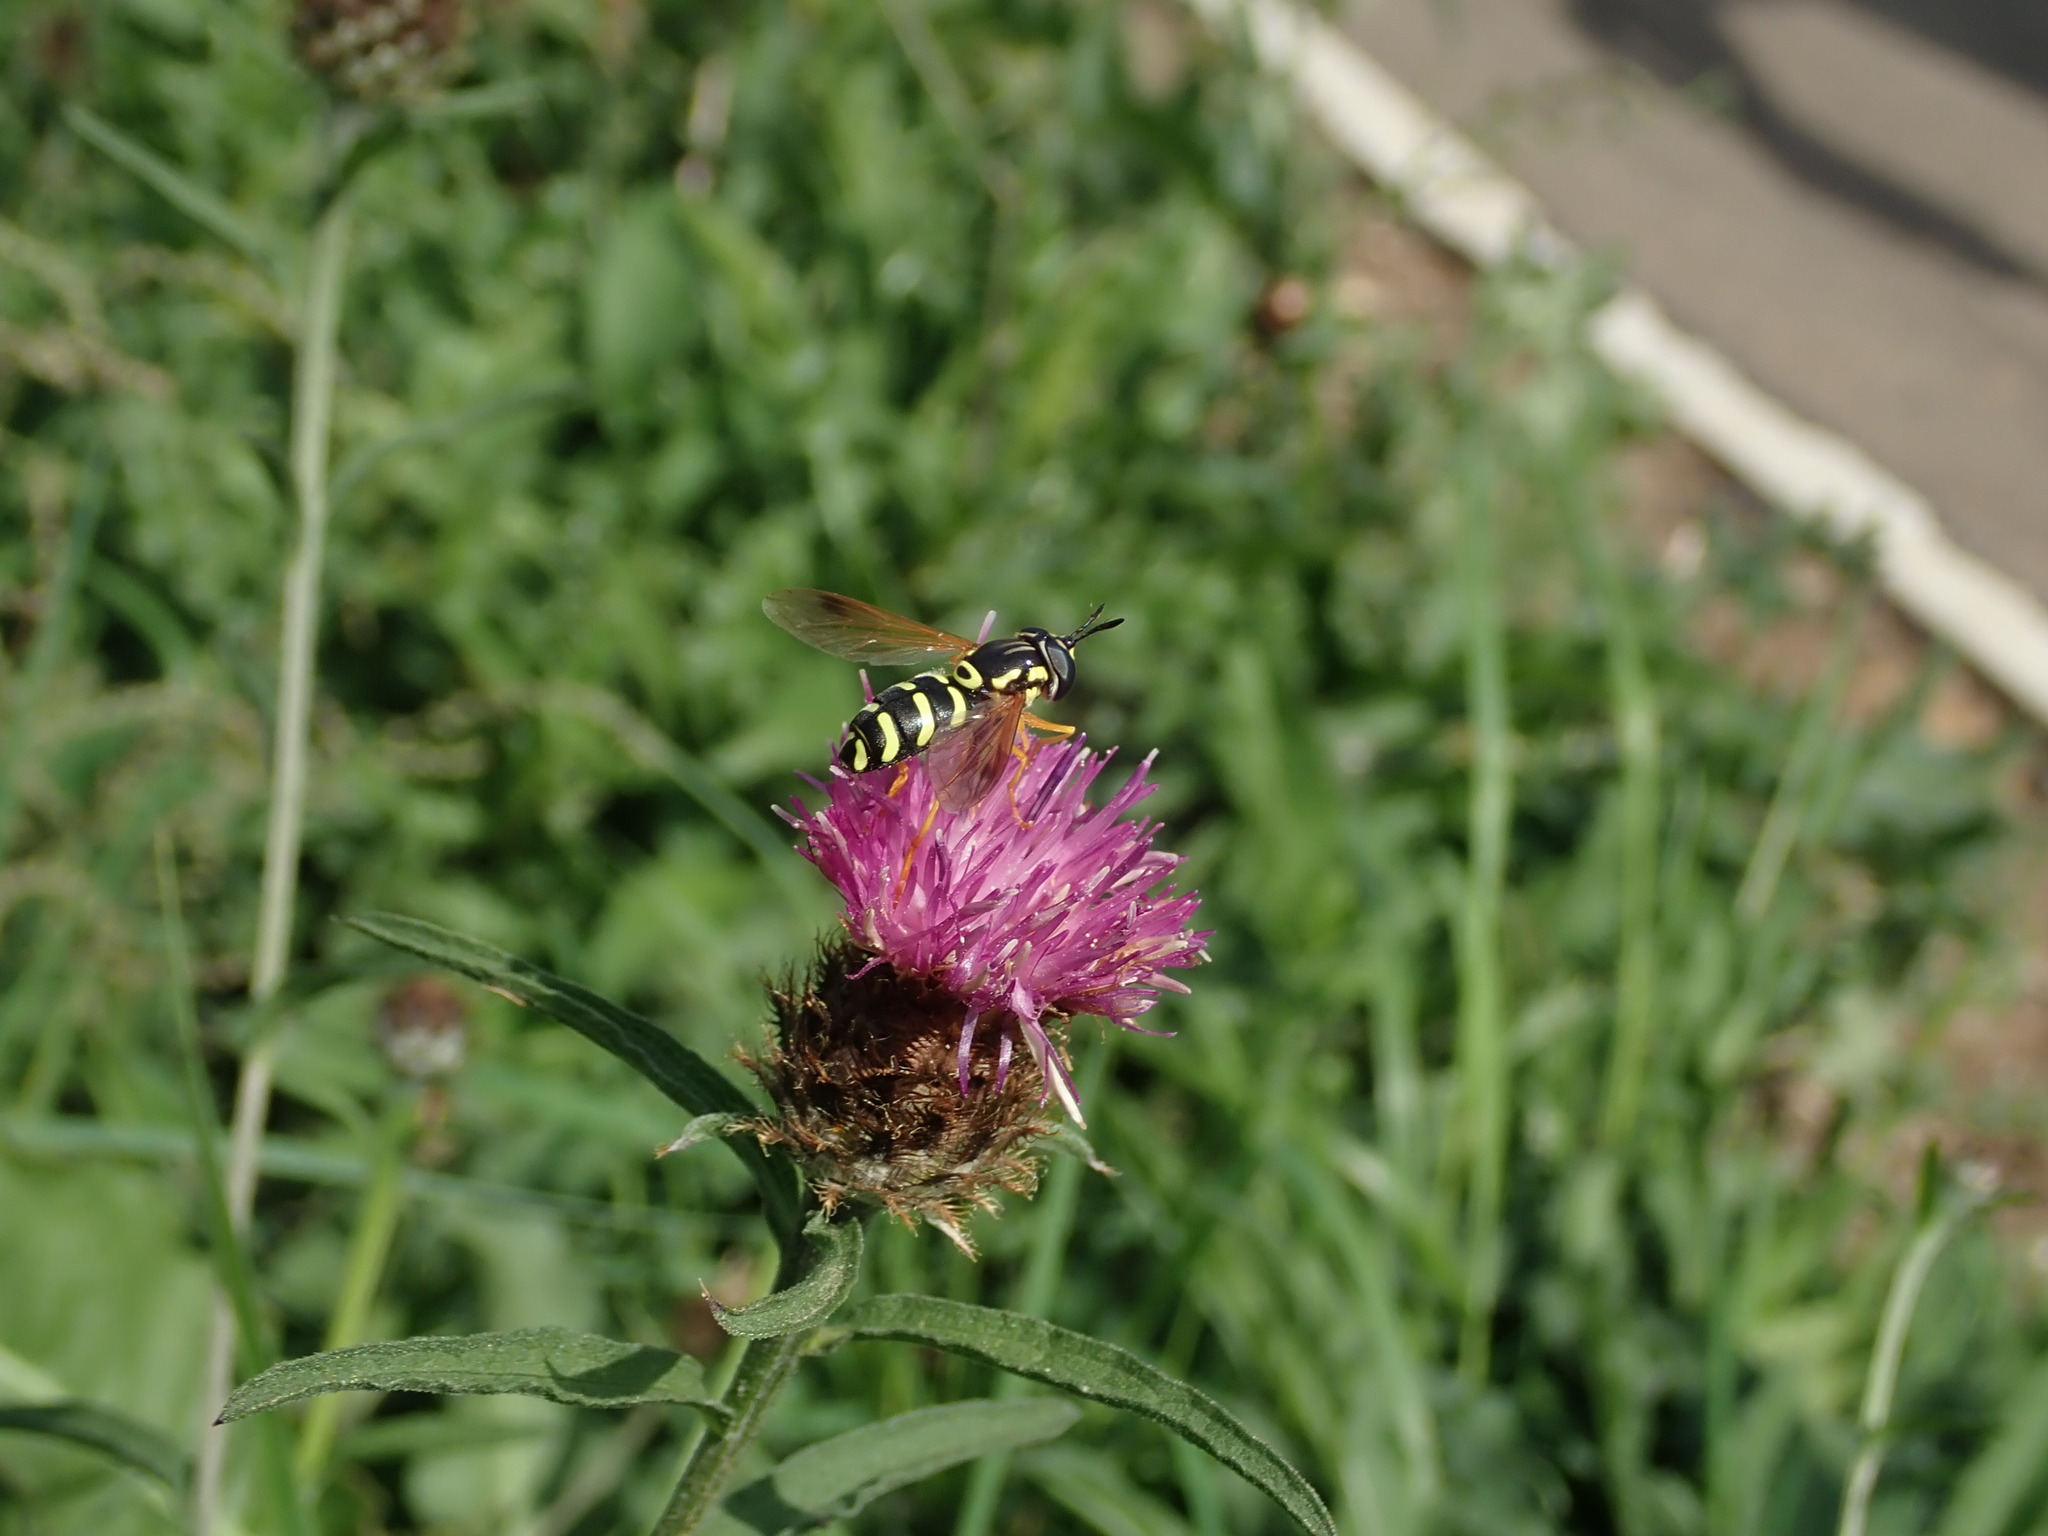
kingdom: Animalia
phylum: Arthropoda
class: Insecta
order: Diptera
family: Syrphidae
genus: Chrysotoxum
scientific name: Chrysotoxum festivum
